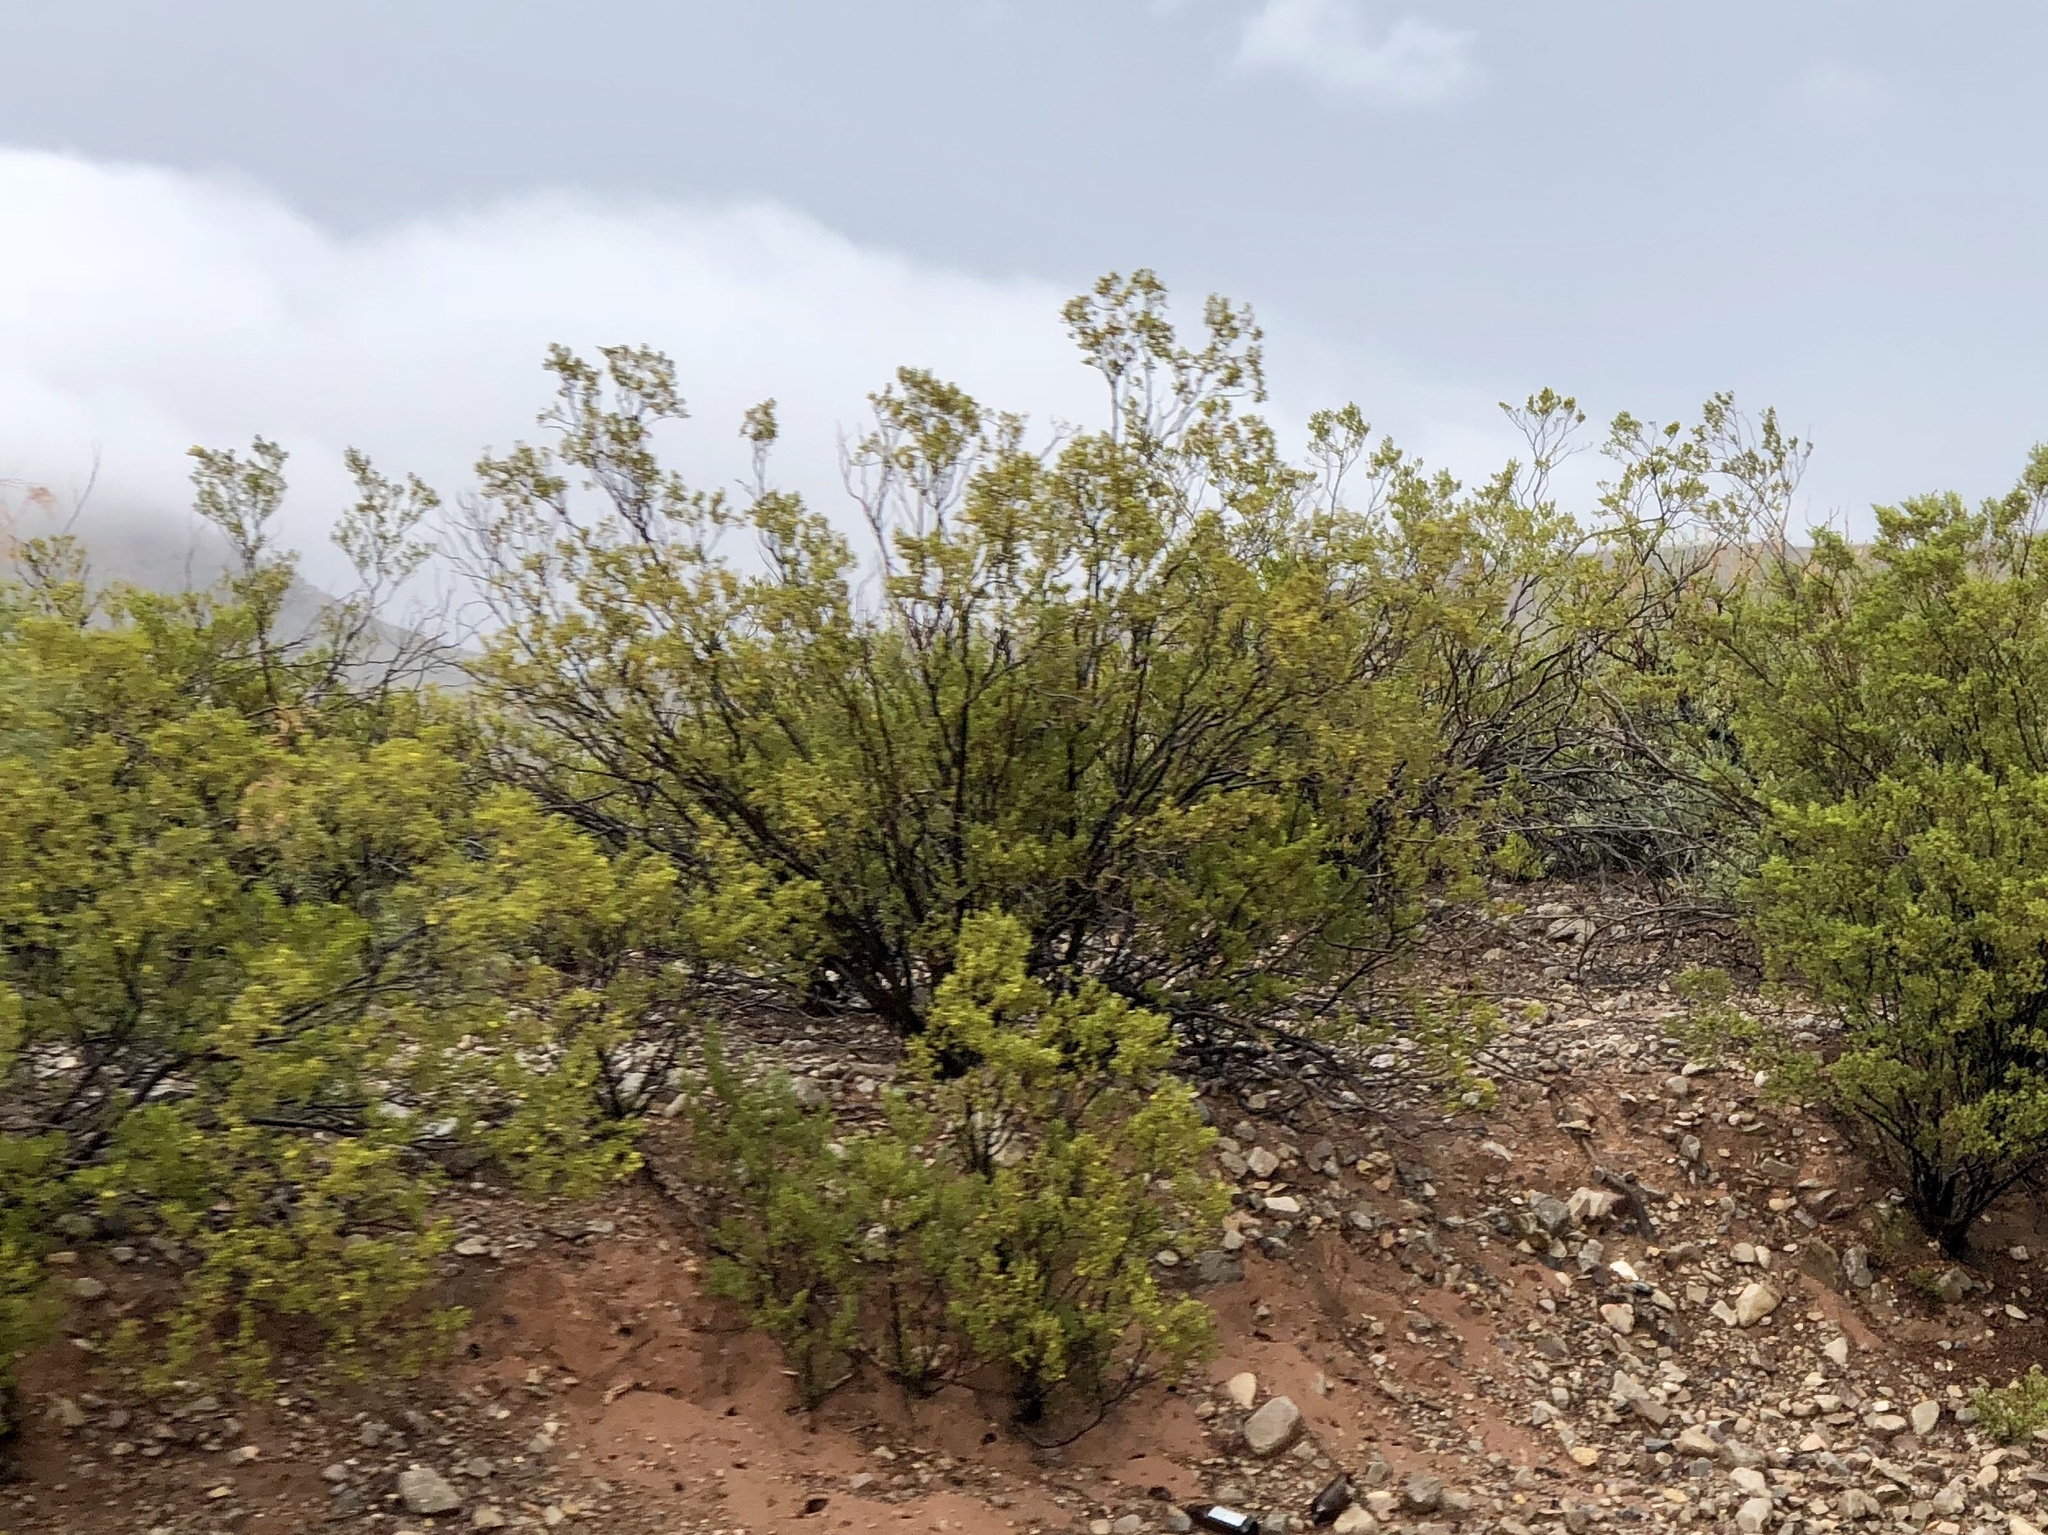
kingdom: Plantae
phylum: Tracheophyta
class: Magnoliopsida
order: Zygophyllales
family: Zygophyllaceae
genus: Larrea
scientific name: Larrea tridentata
